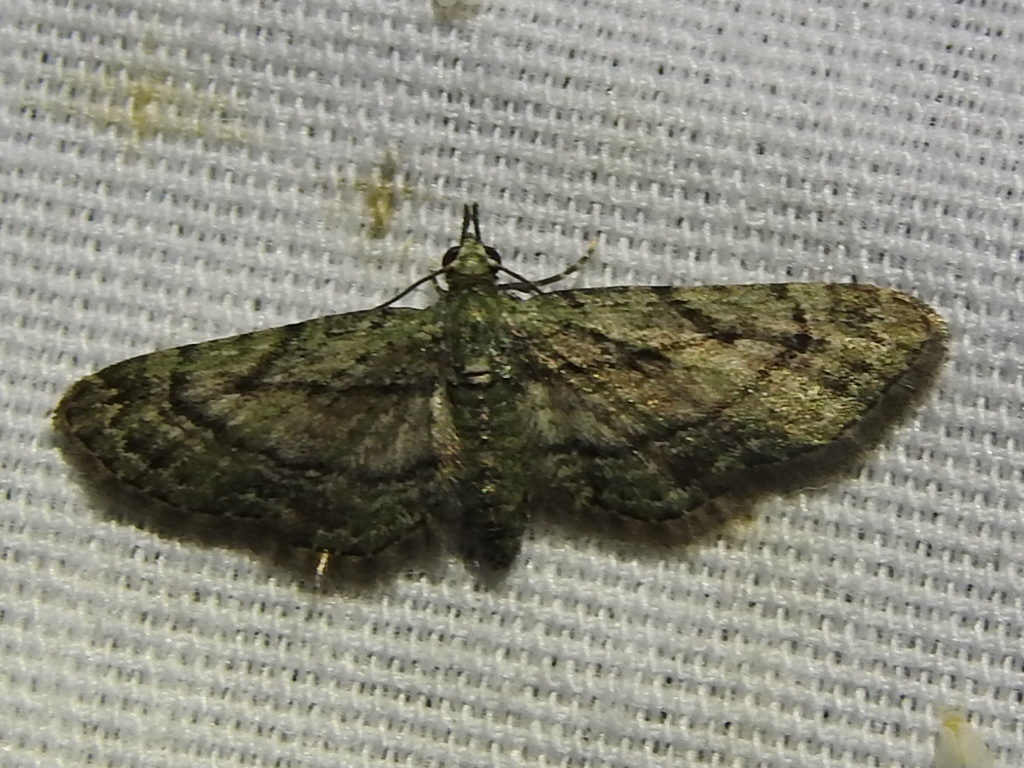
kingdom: Animalia
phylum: Arthropoda
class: Insecta
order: Lepidoptera
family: Geometridae
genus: Eupithecia
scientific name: Eupithecia longidens
